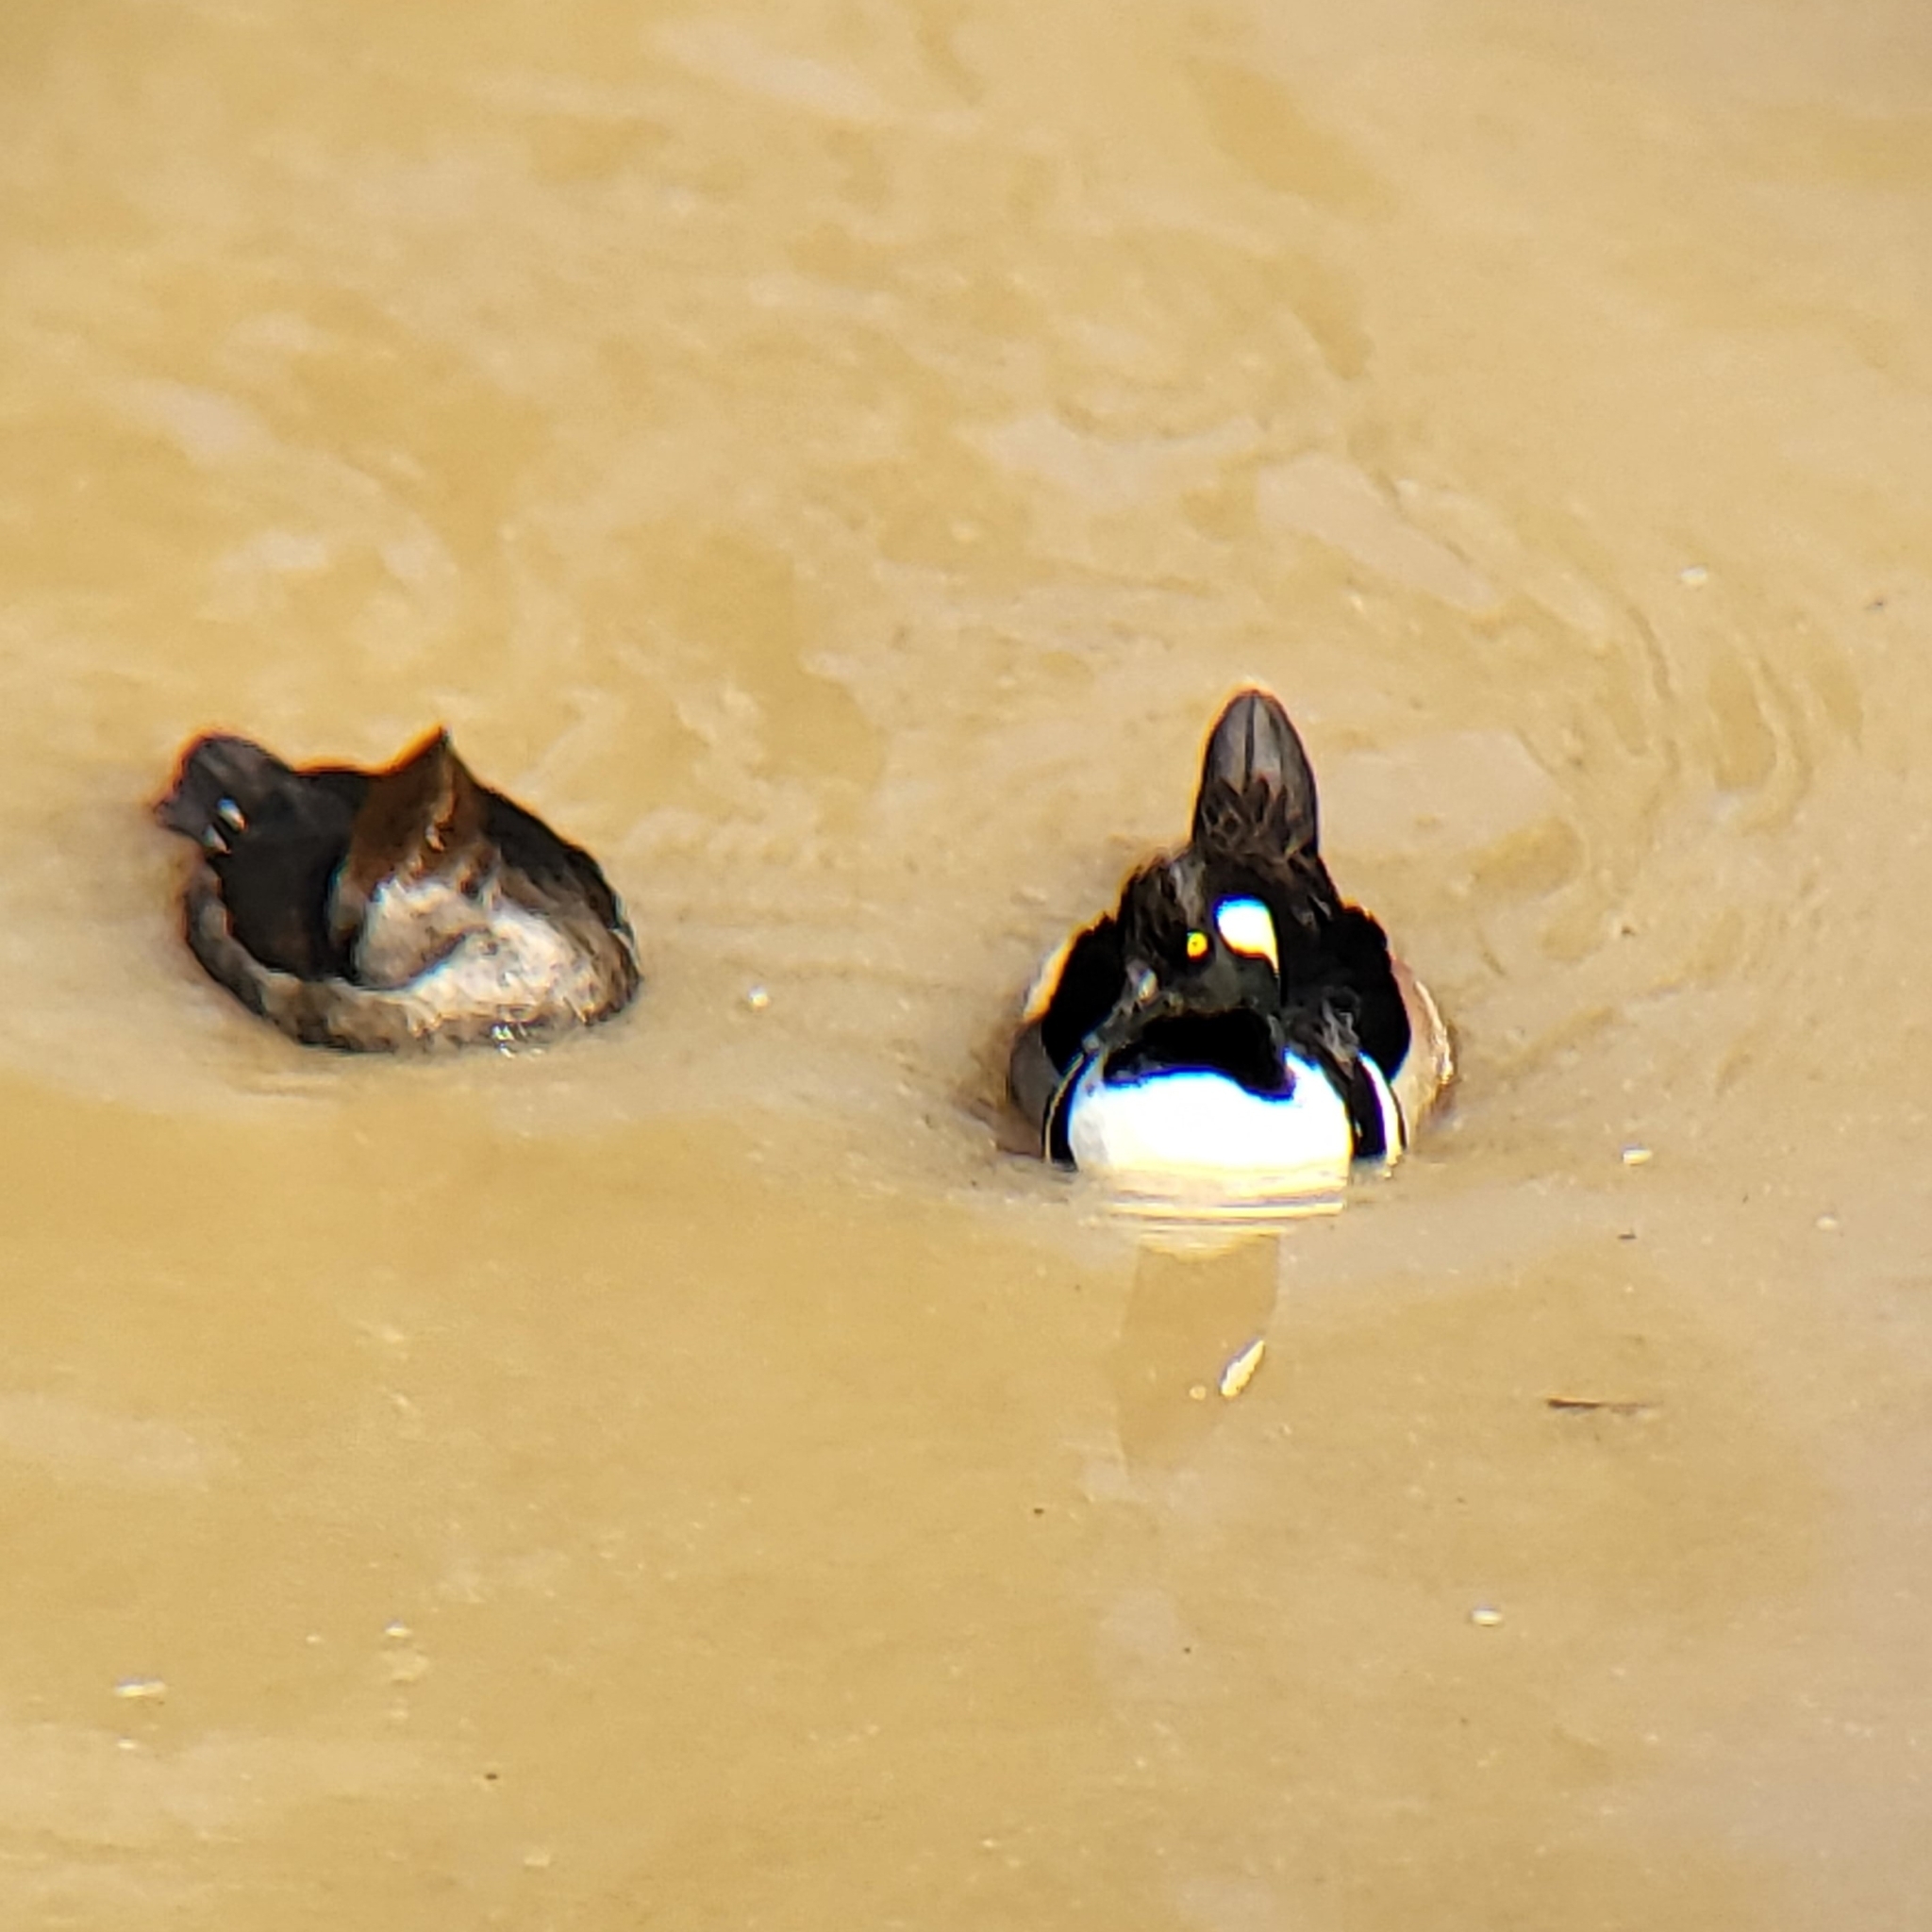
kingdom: Animalia
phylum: Chordata
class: Aves
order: Anseriformes
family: Anatidae
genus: Lophodytes
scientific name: Lophodytes cucullatus
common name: Hooded merganser
